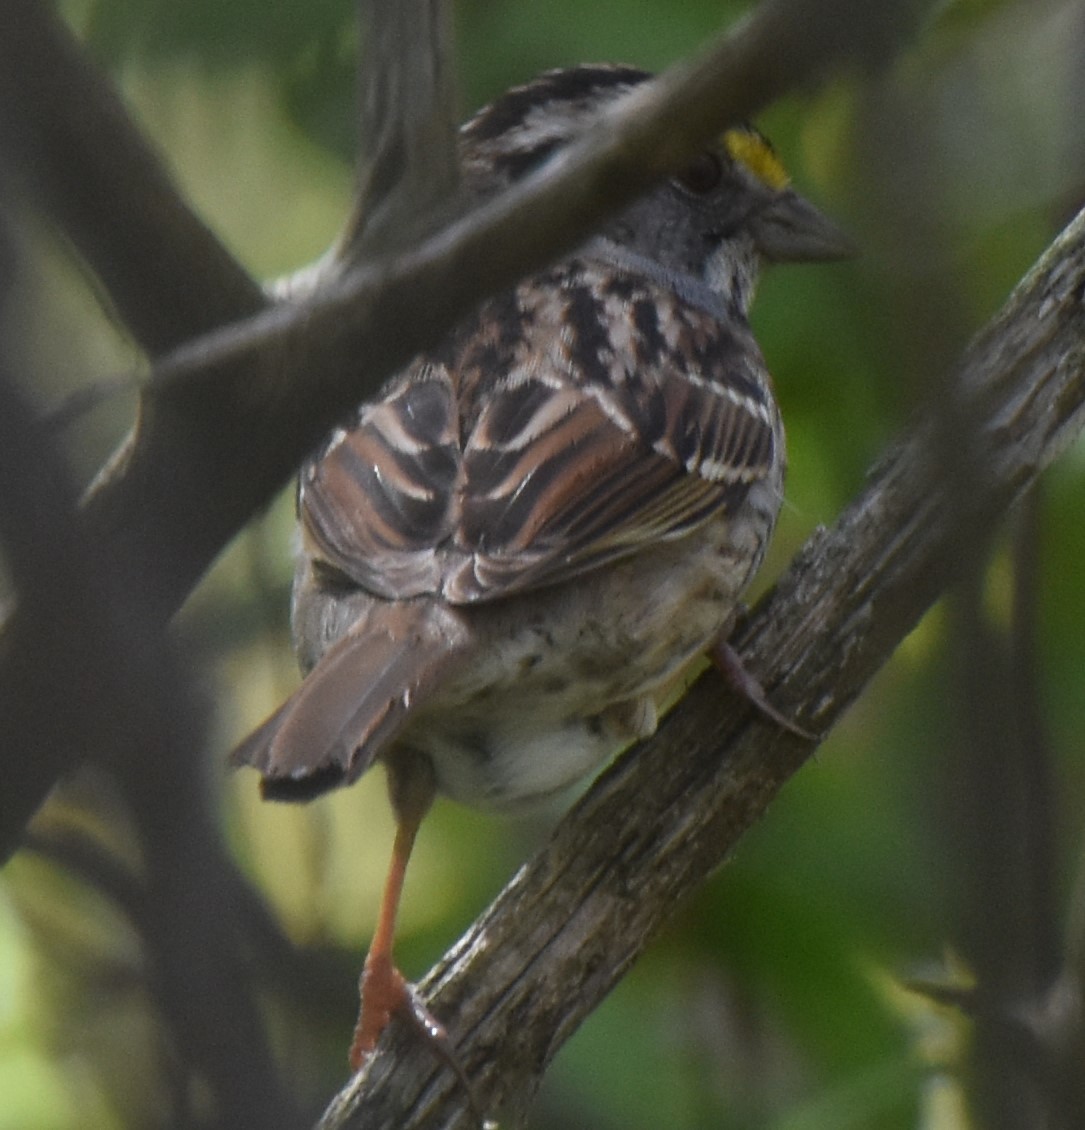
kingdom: Animalia
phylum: Chordata
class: Aves
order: Passeriformes
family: Passerellidae
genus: Zonotrichia
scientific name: Zonotrichia albicollis
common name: White-throated sparrow
